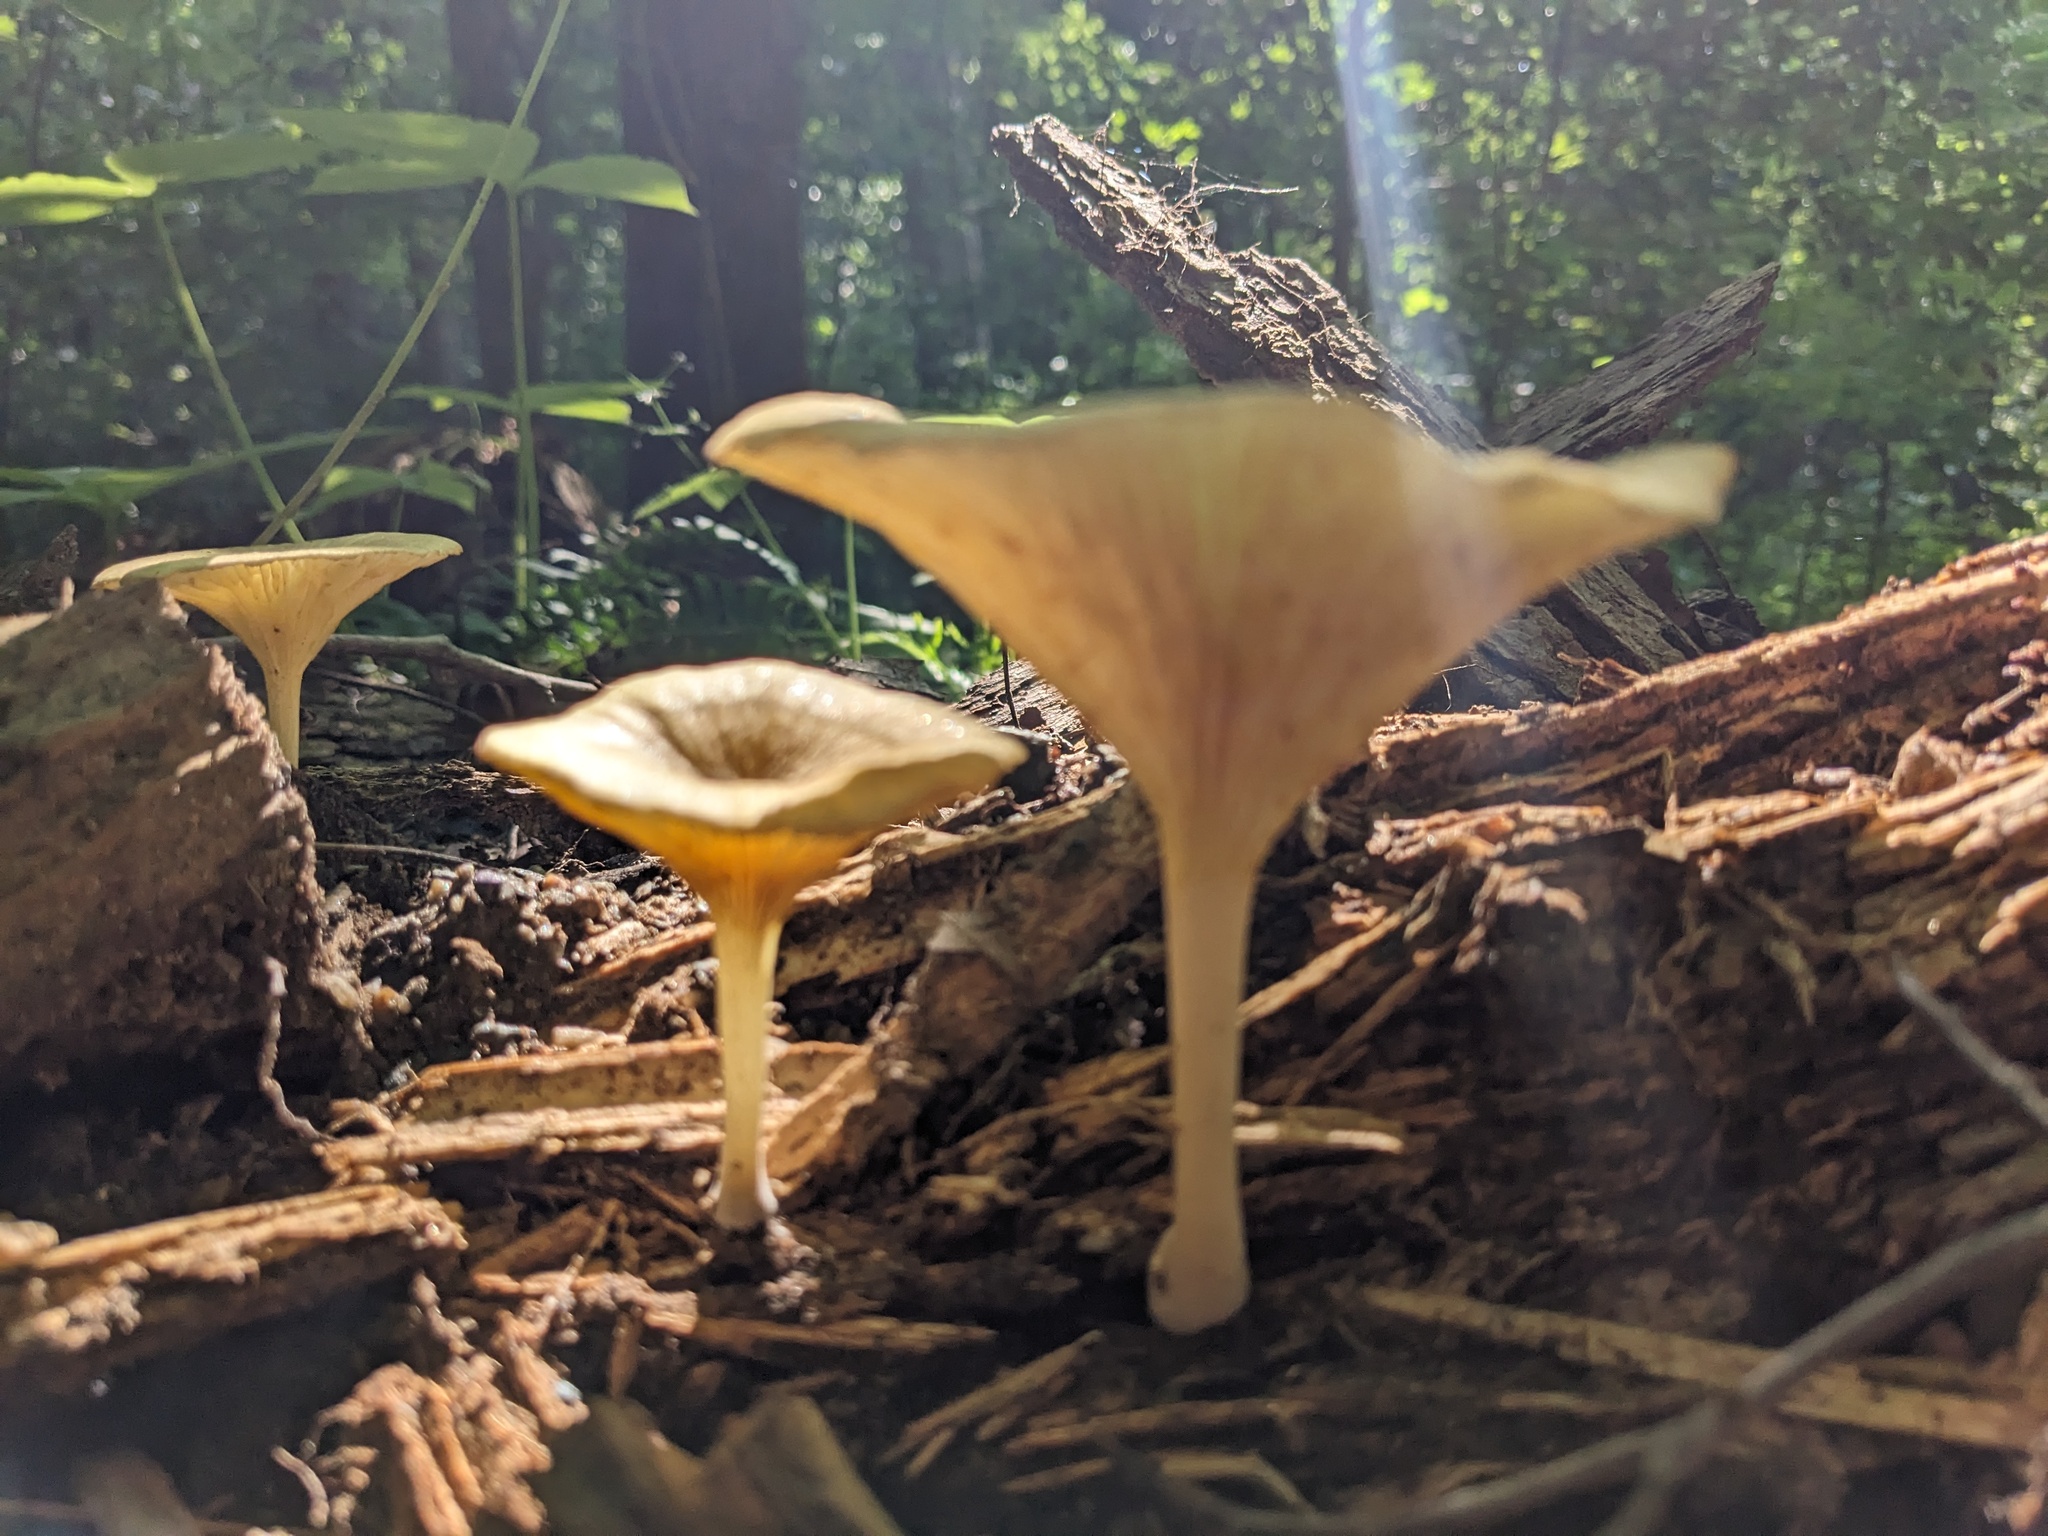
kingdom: Fungi
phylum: Basidiomycota
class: Agaricomycetes
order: Agaricales
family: Marasmiaceae
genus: Gerronema
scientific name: Gerronema strombodes
